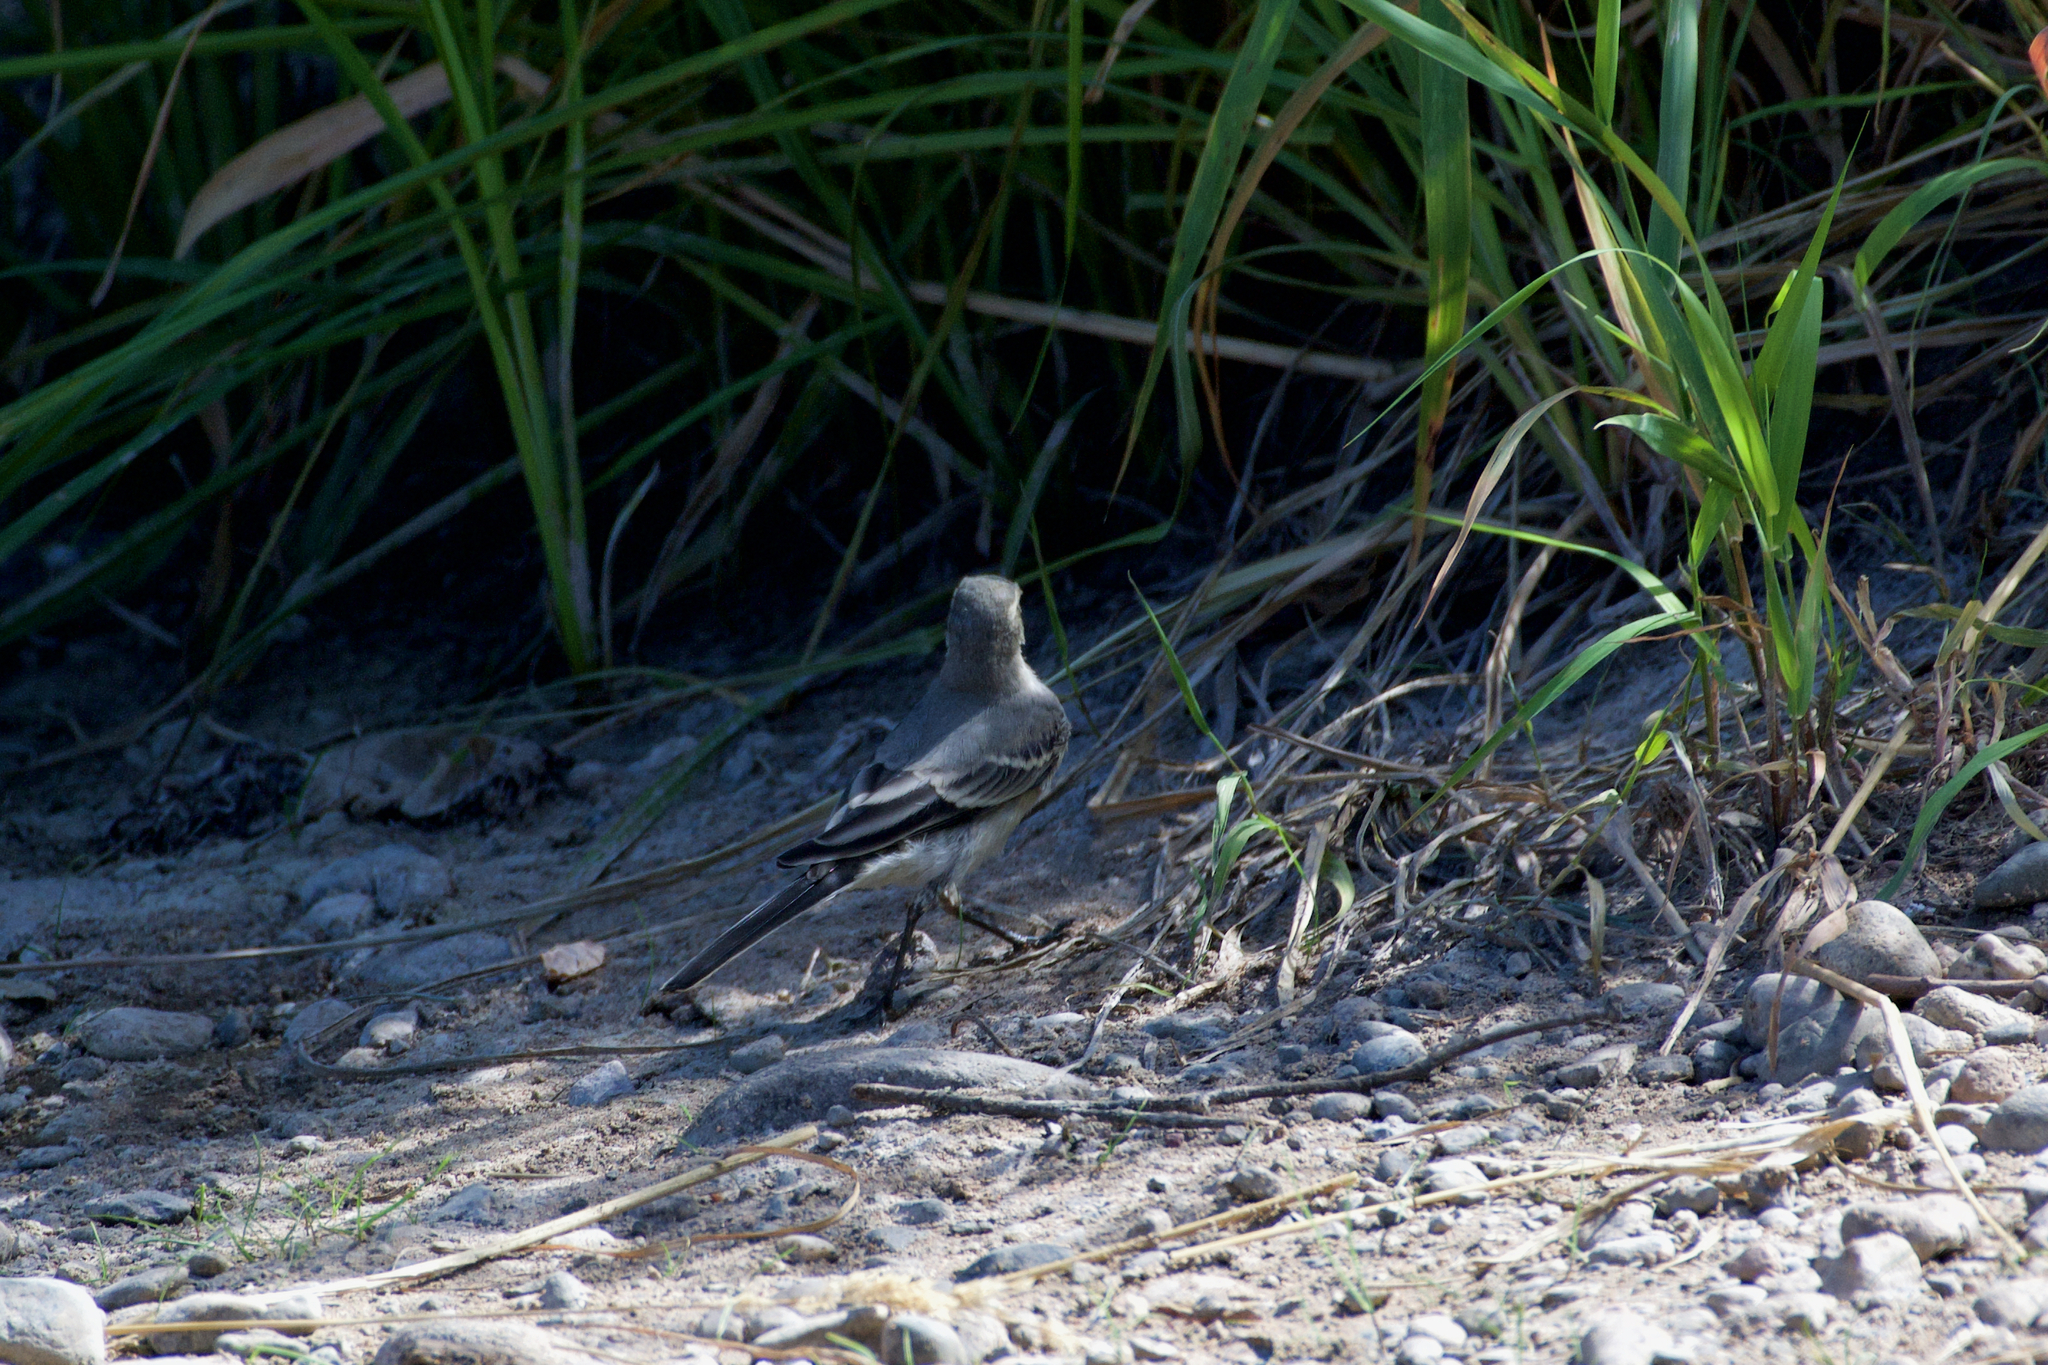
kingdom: Animalia
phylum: Chordata
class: Aves
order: Passeriformes
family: Motacillidae
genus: Motacilla
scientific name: Motacilla alba
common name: White wagtail
